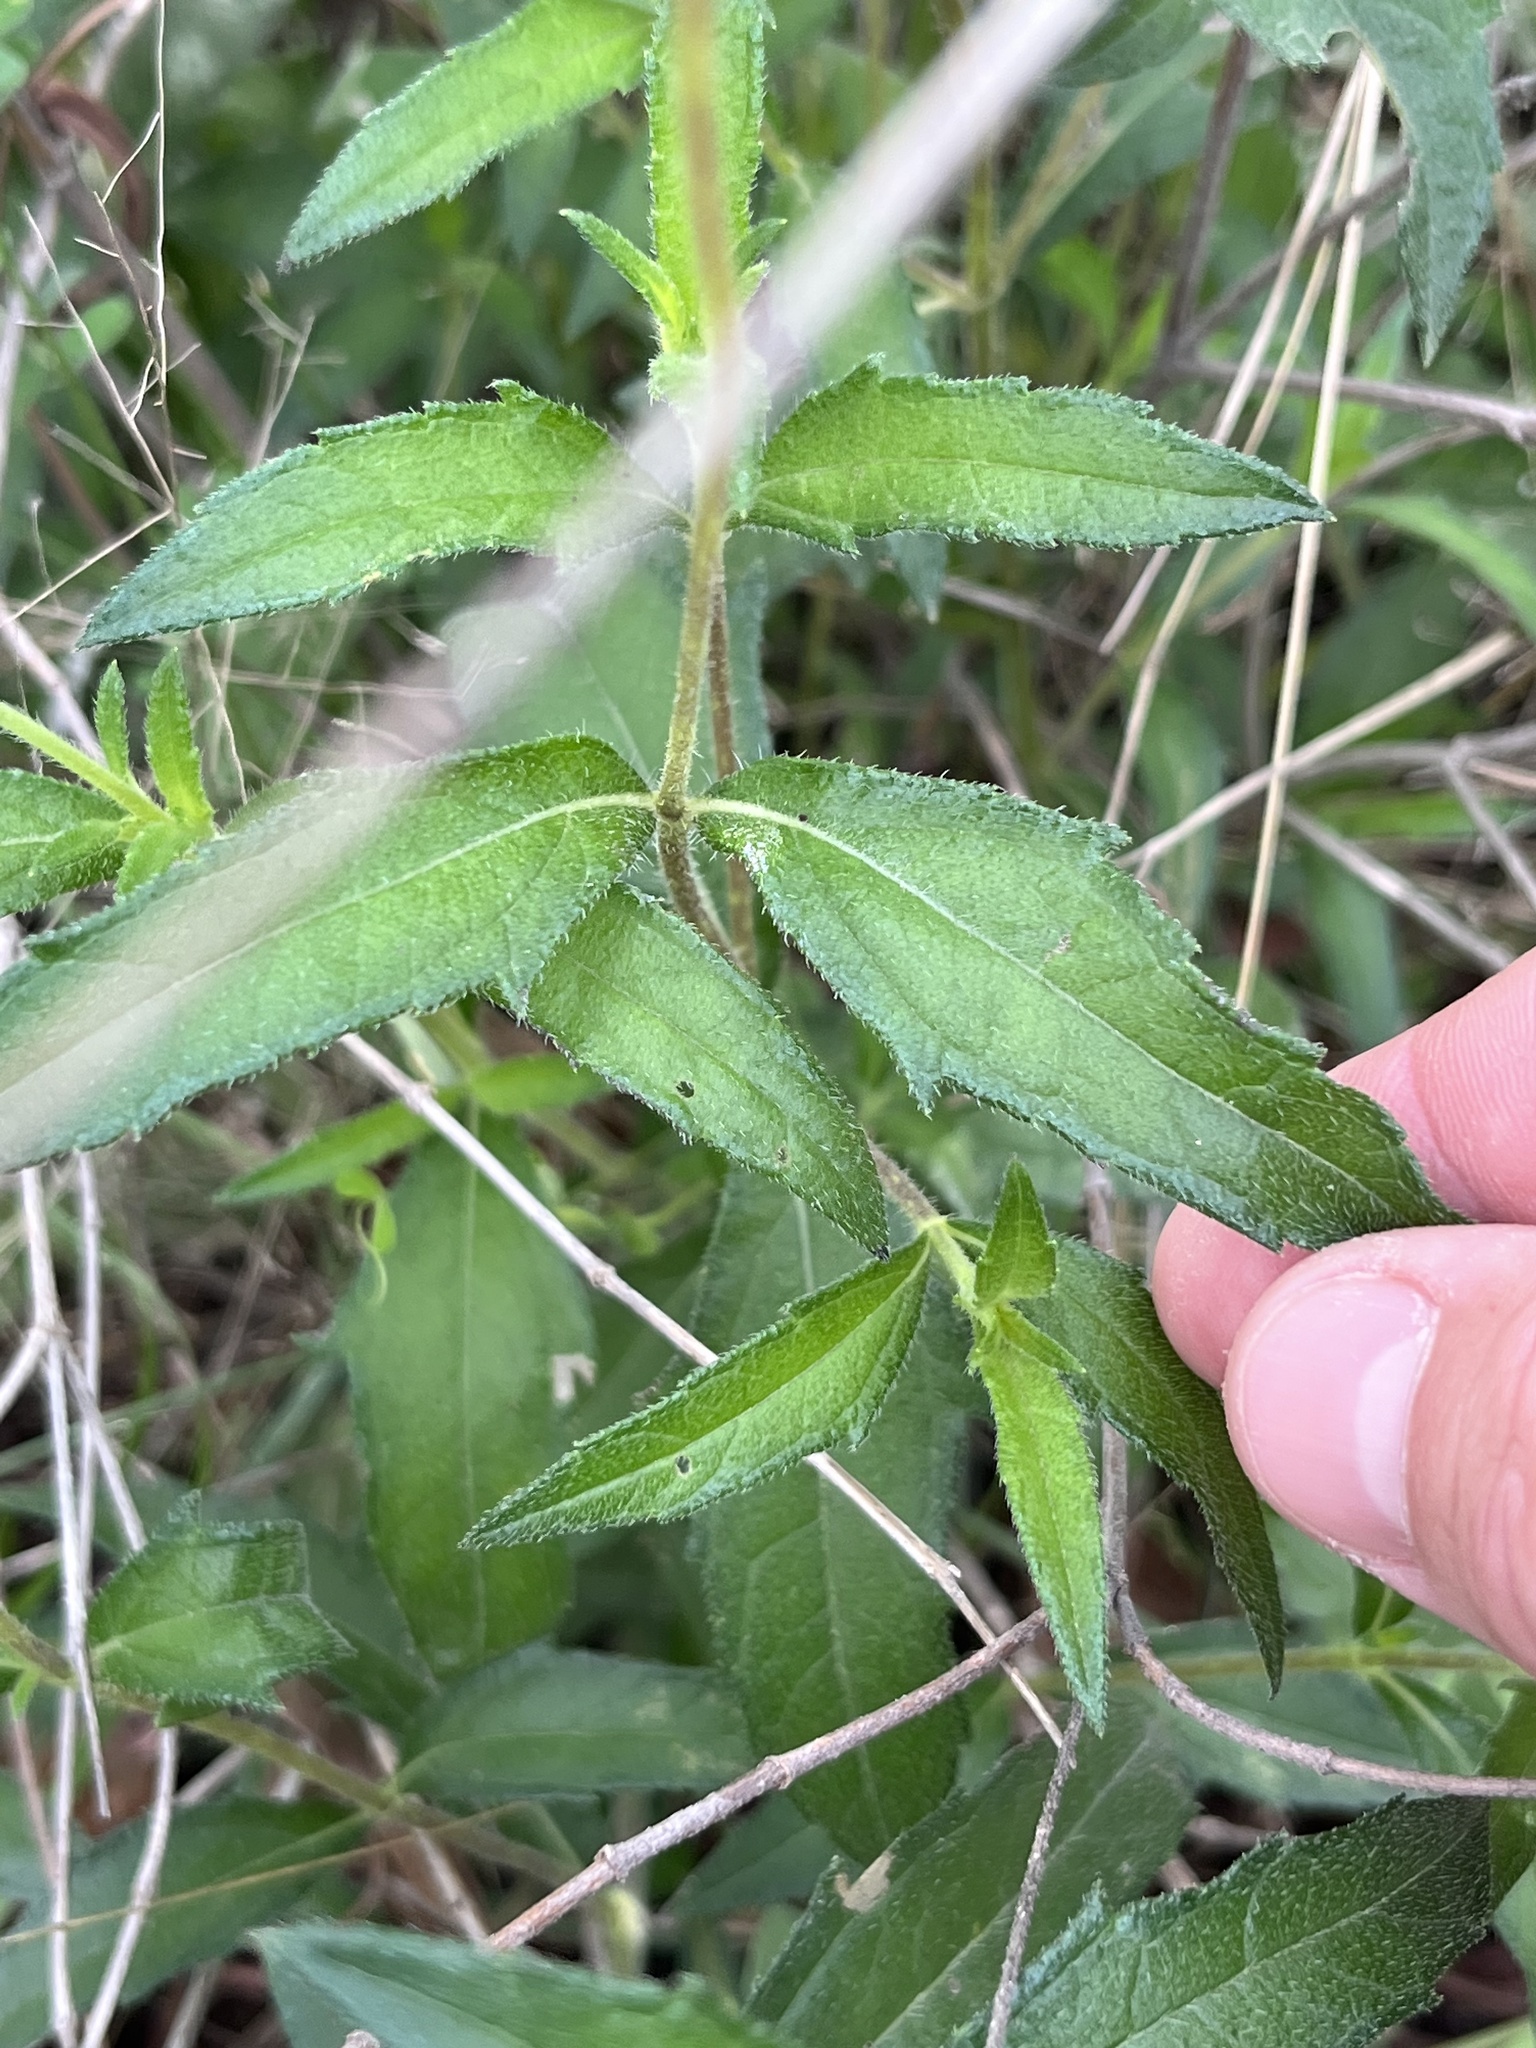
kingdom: Plantae
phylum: Tracheophyta
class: Magnoliopsida
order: Asterales
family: Asteraceae
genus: Wedelia
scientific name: Wedelia acapulcensis
